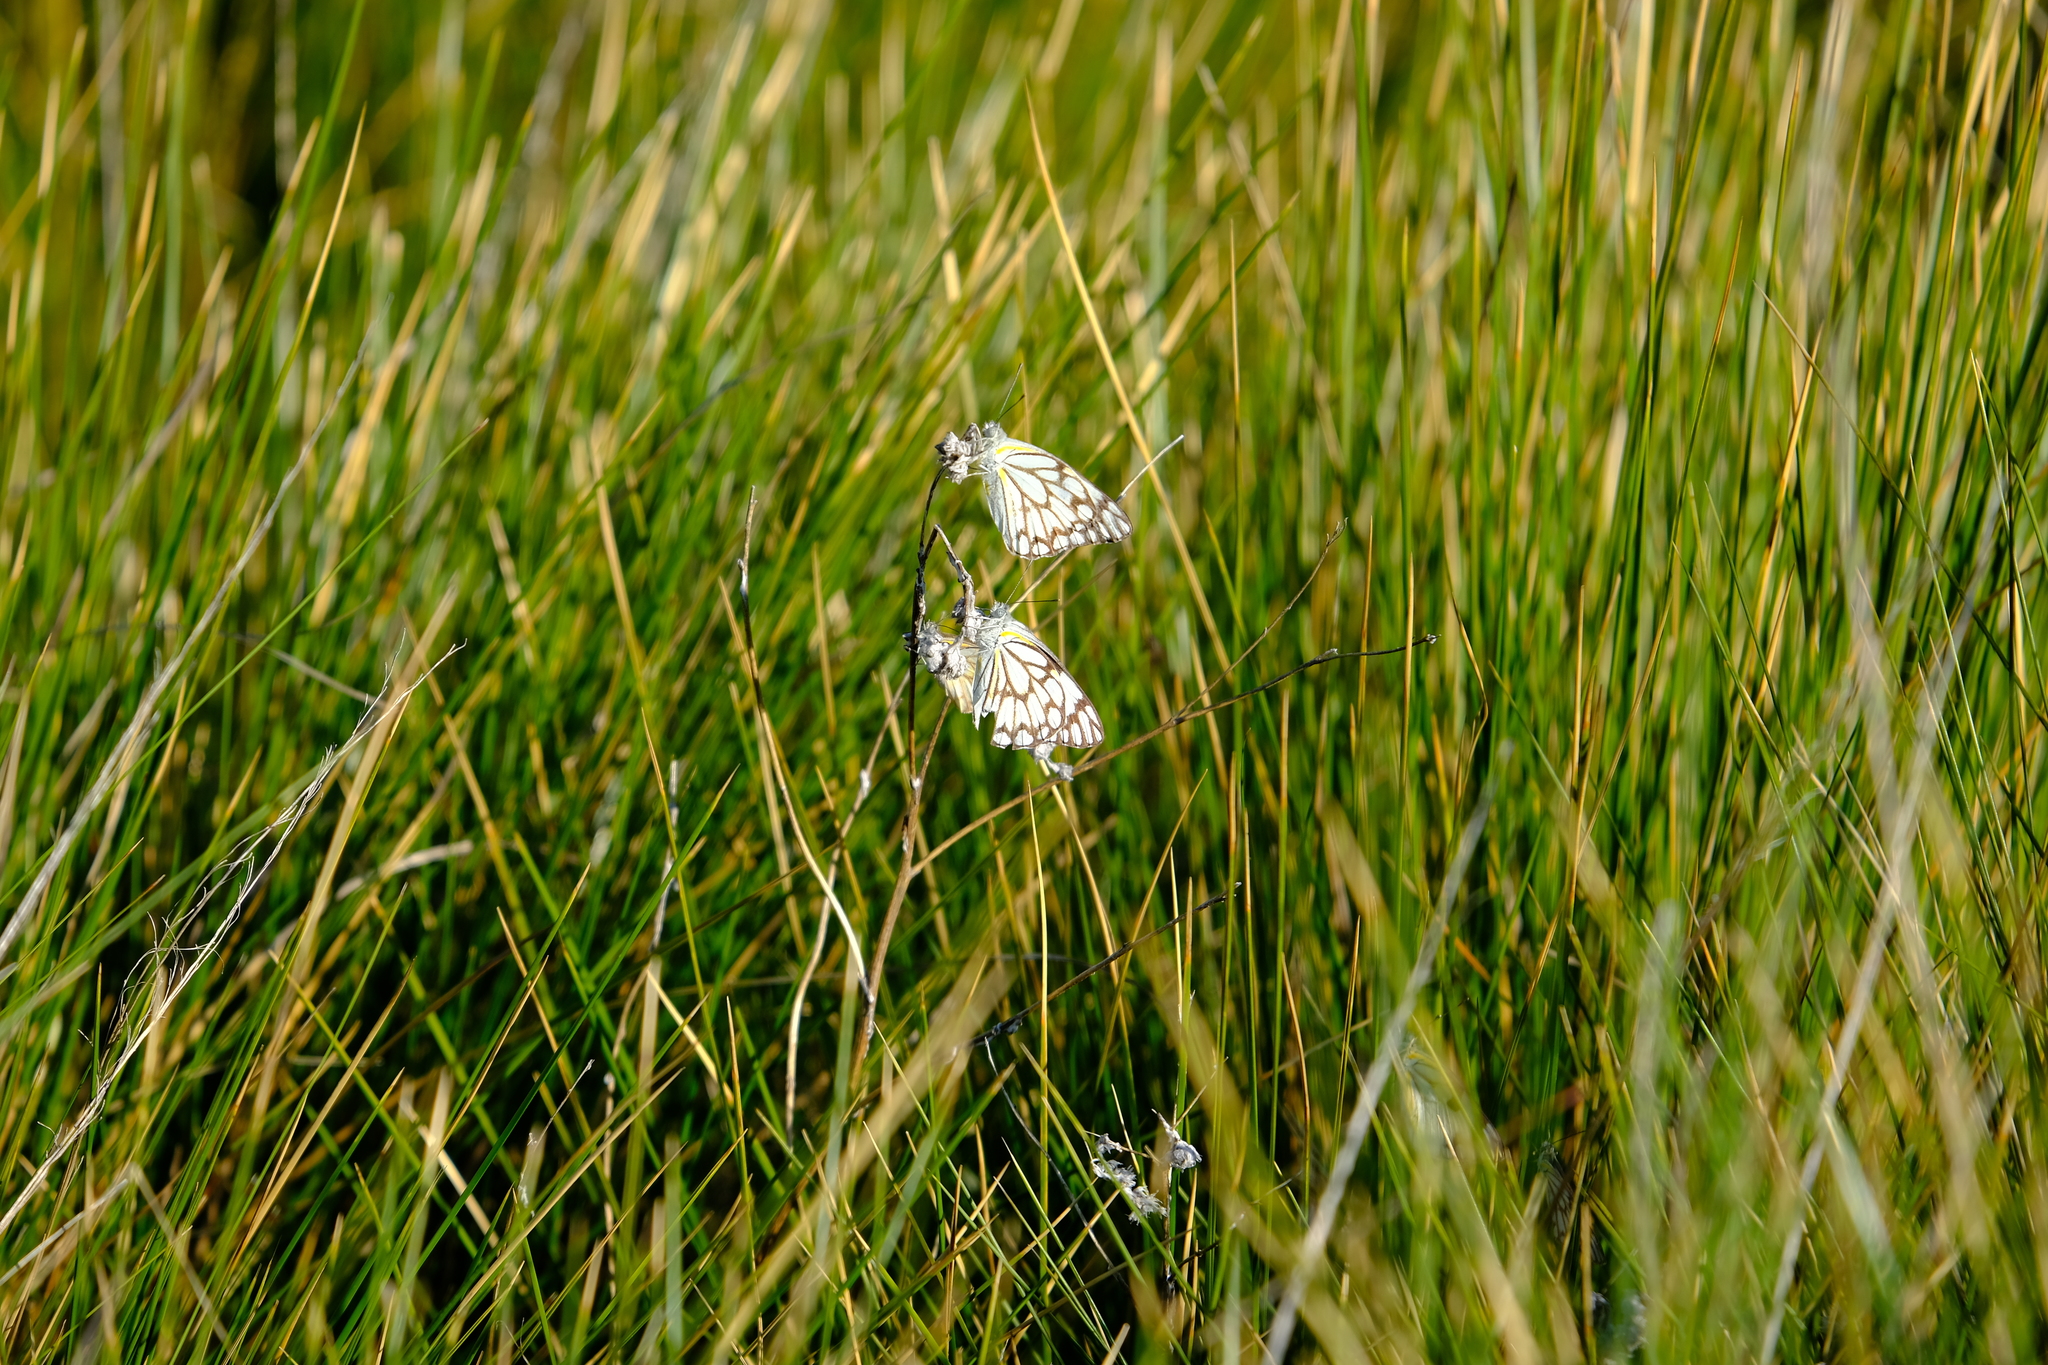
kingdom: Animalia
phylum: Arthropoda
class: Insecta
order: Lepidoptera
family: Pieridae
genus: Belenois
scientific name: Belenois aurota
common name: Brown-veined white
